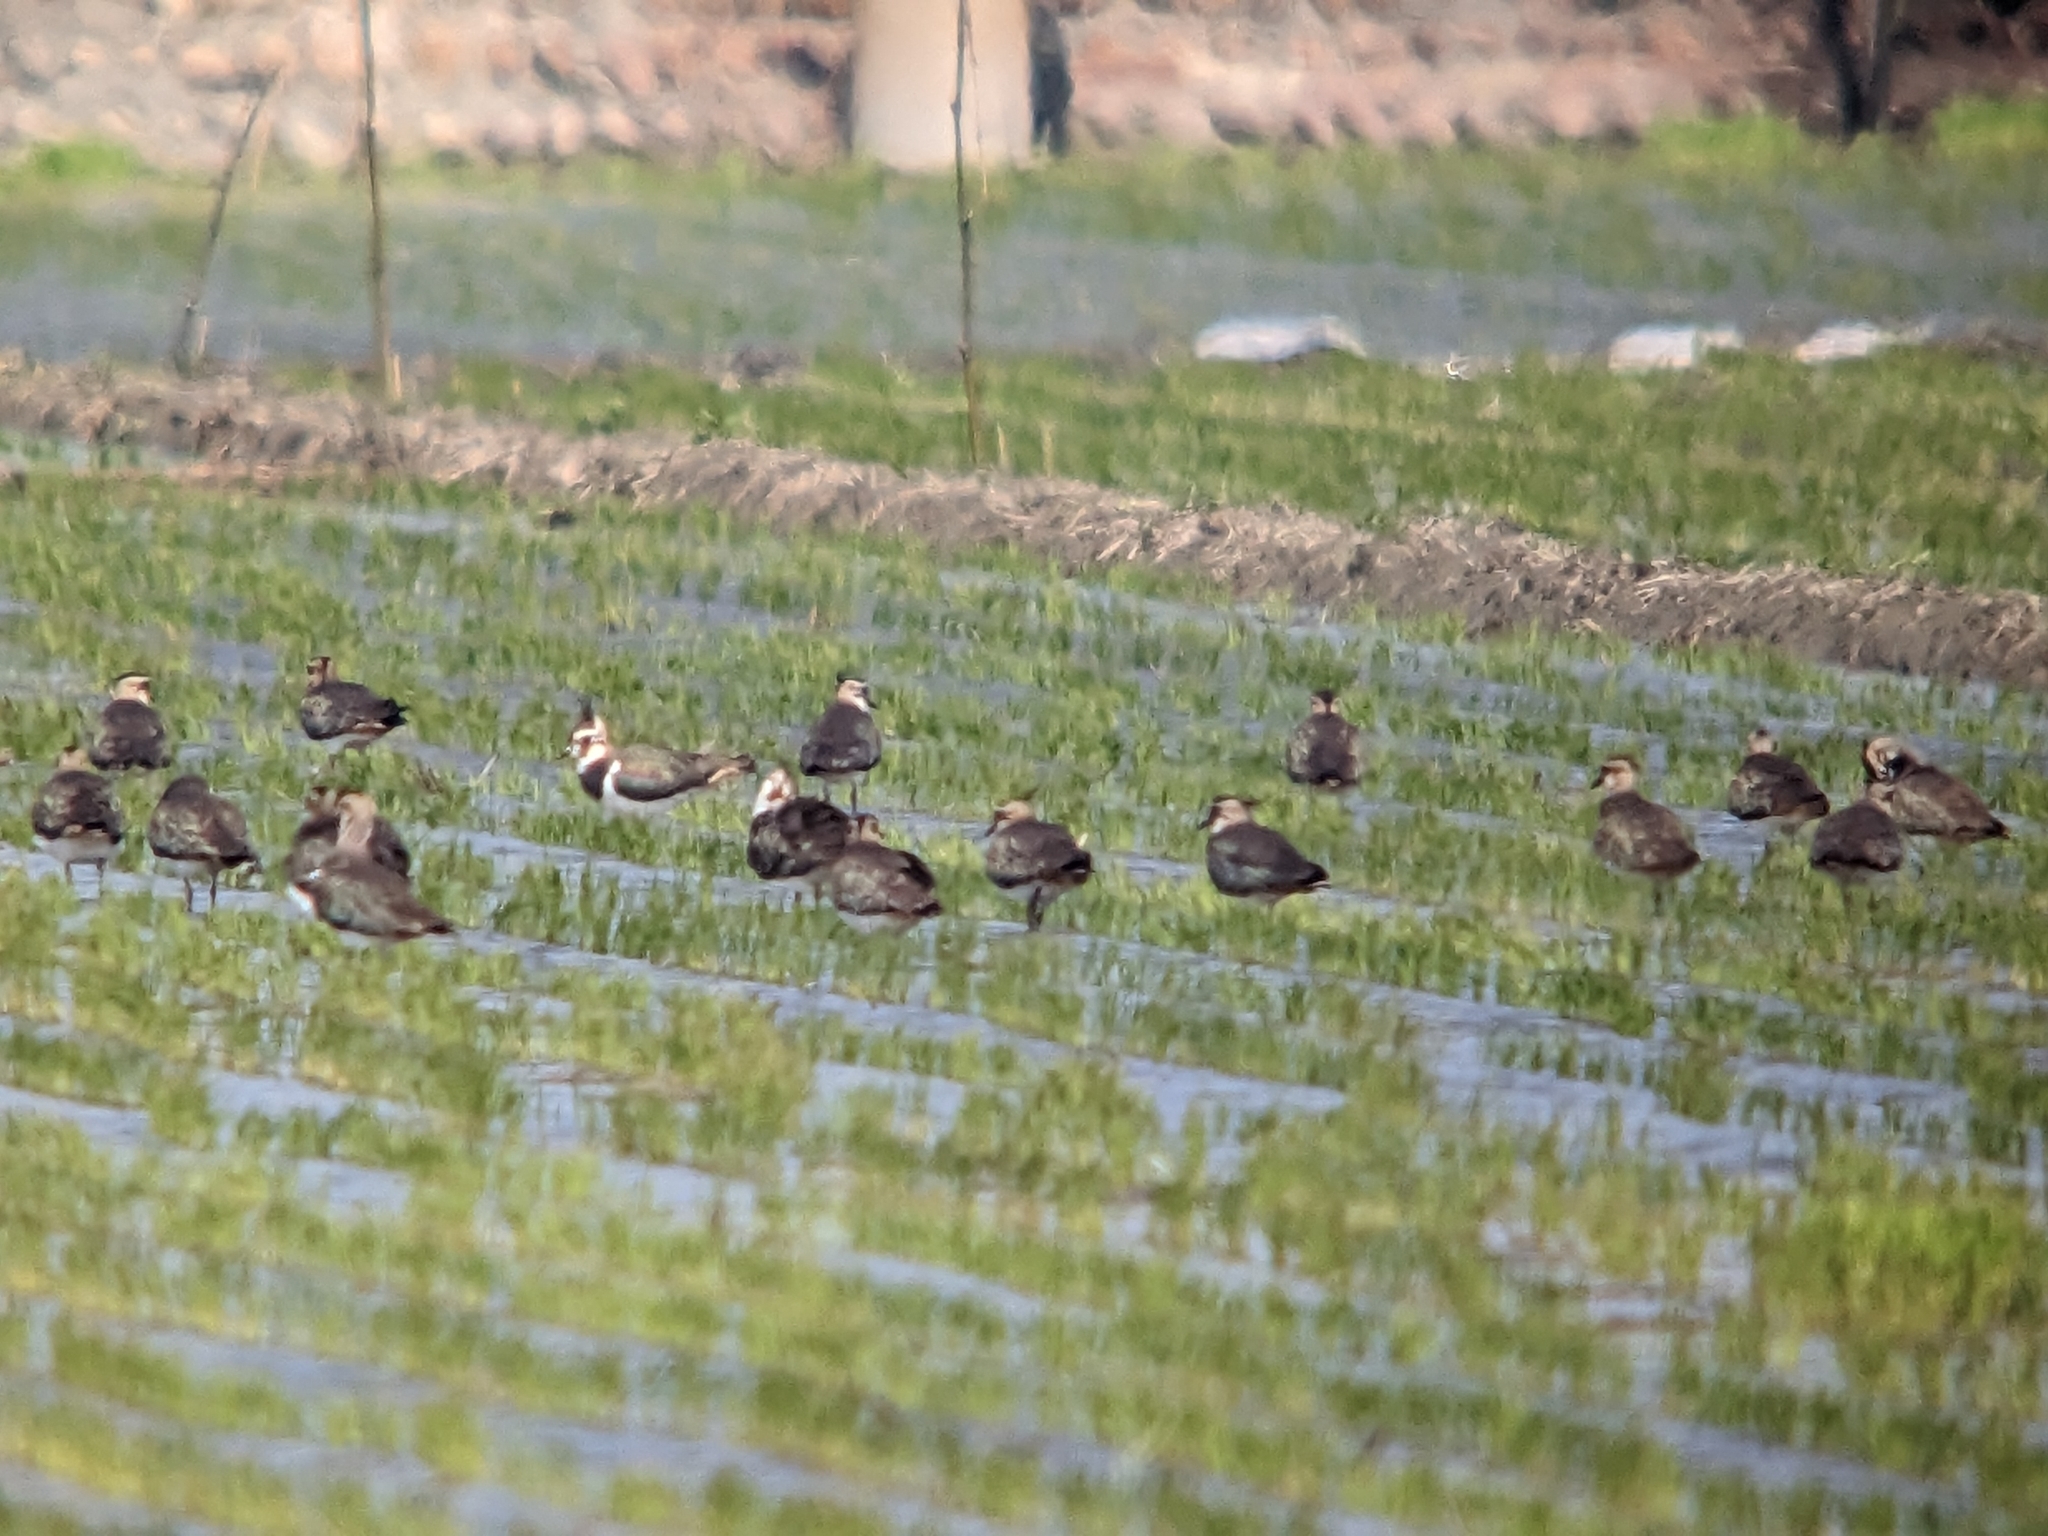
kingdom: Animalia
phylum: Chordata
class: Aves
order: Charadriiformes
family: Charadriidae
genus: Vanellus
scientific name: Vanellus vanellus
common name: Northern lapwing
